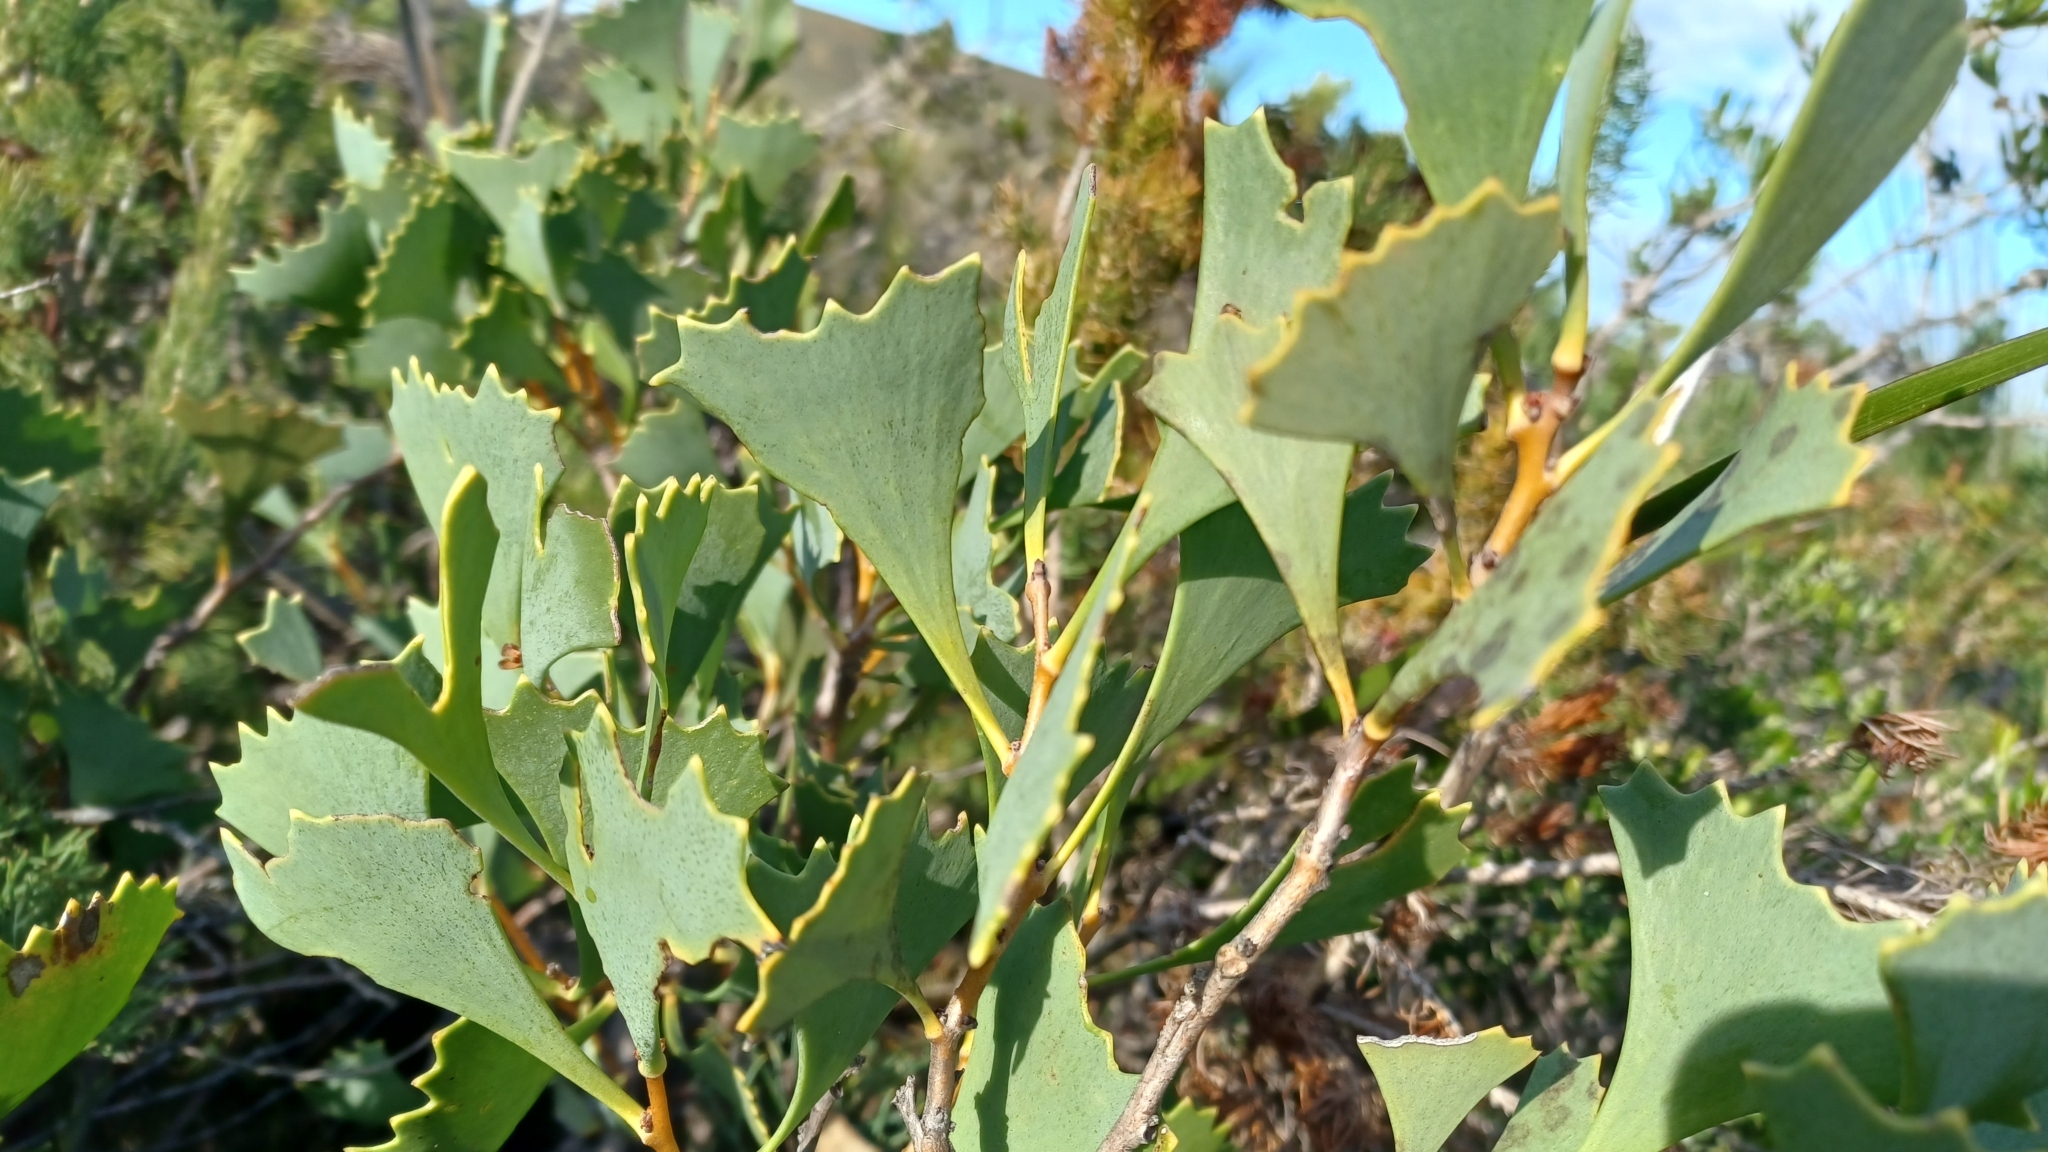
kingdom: Plantae
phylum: Tracheophyta
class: Magnoliopsida
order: Proteales
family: Proteaceae
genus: Hakea
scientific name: Hakea flabellifolia
